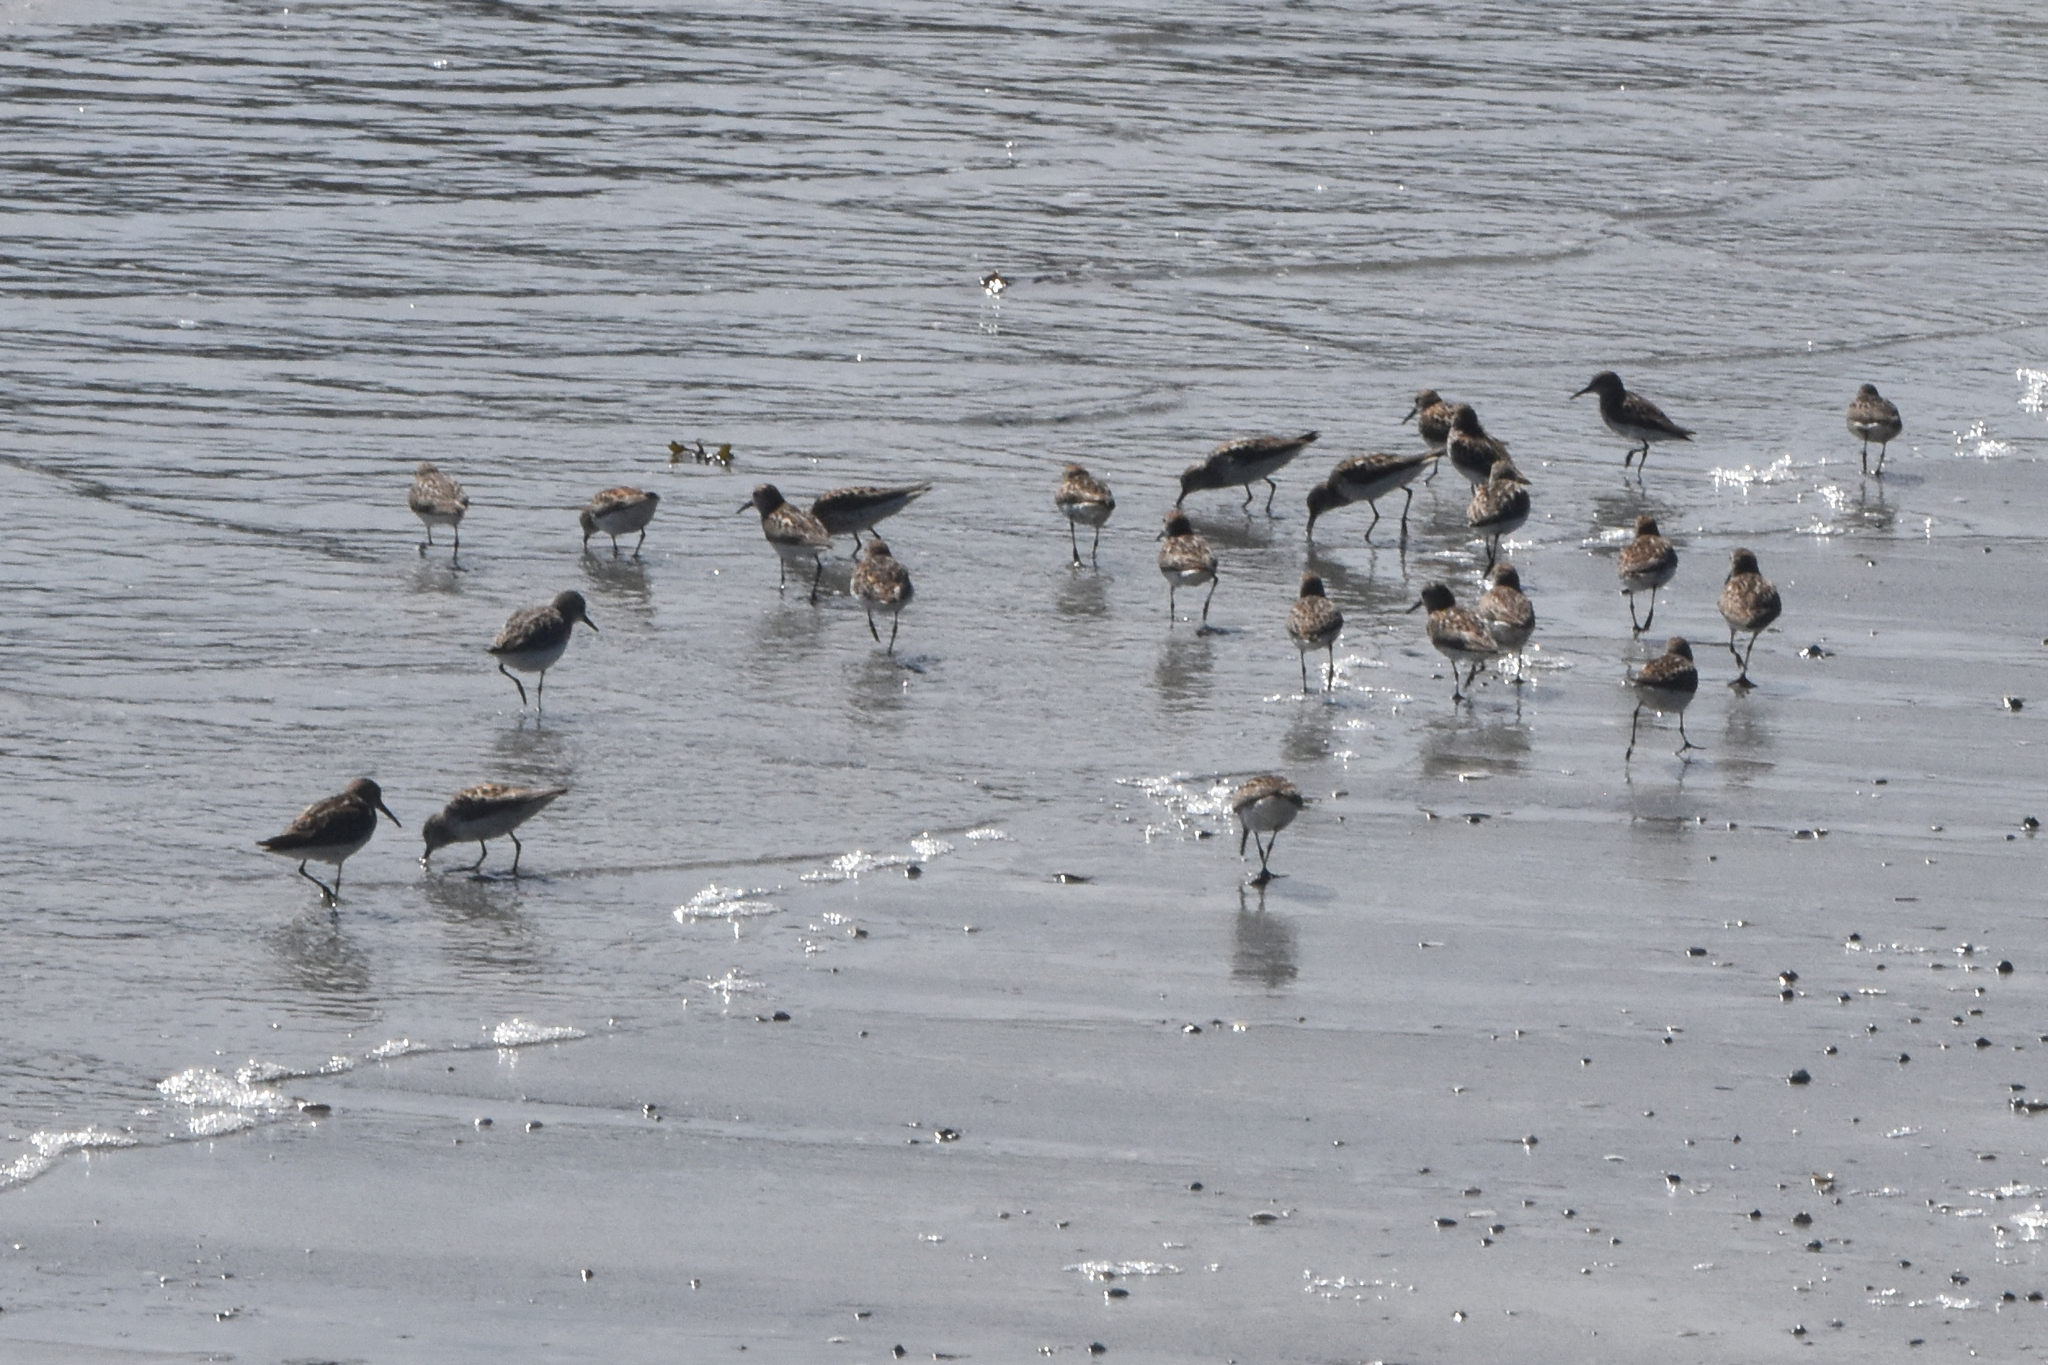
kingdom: Animalia
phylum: Chordata
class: Aves
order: Charadriiformes
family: Scolopacidae
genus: Calidris
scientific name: Calidris mauri
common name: Western sandpiper
